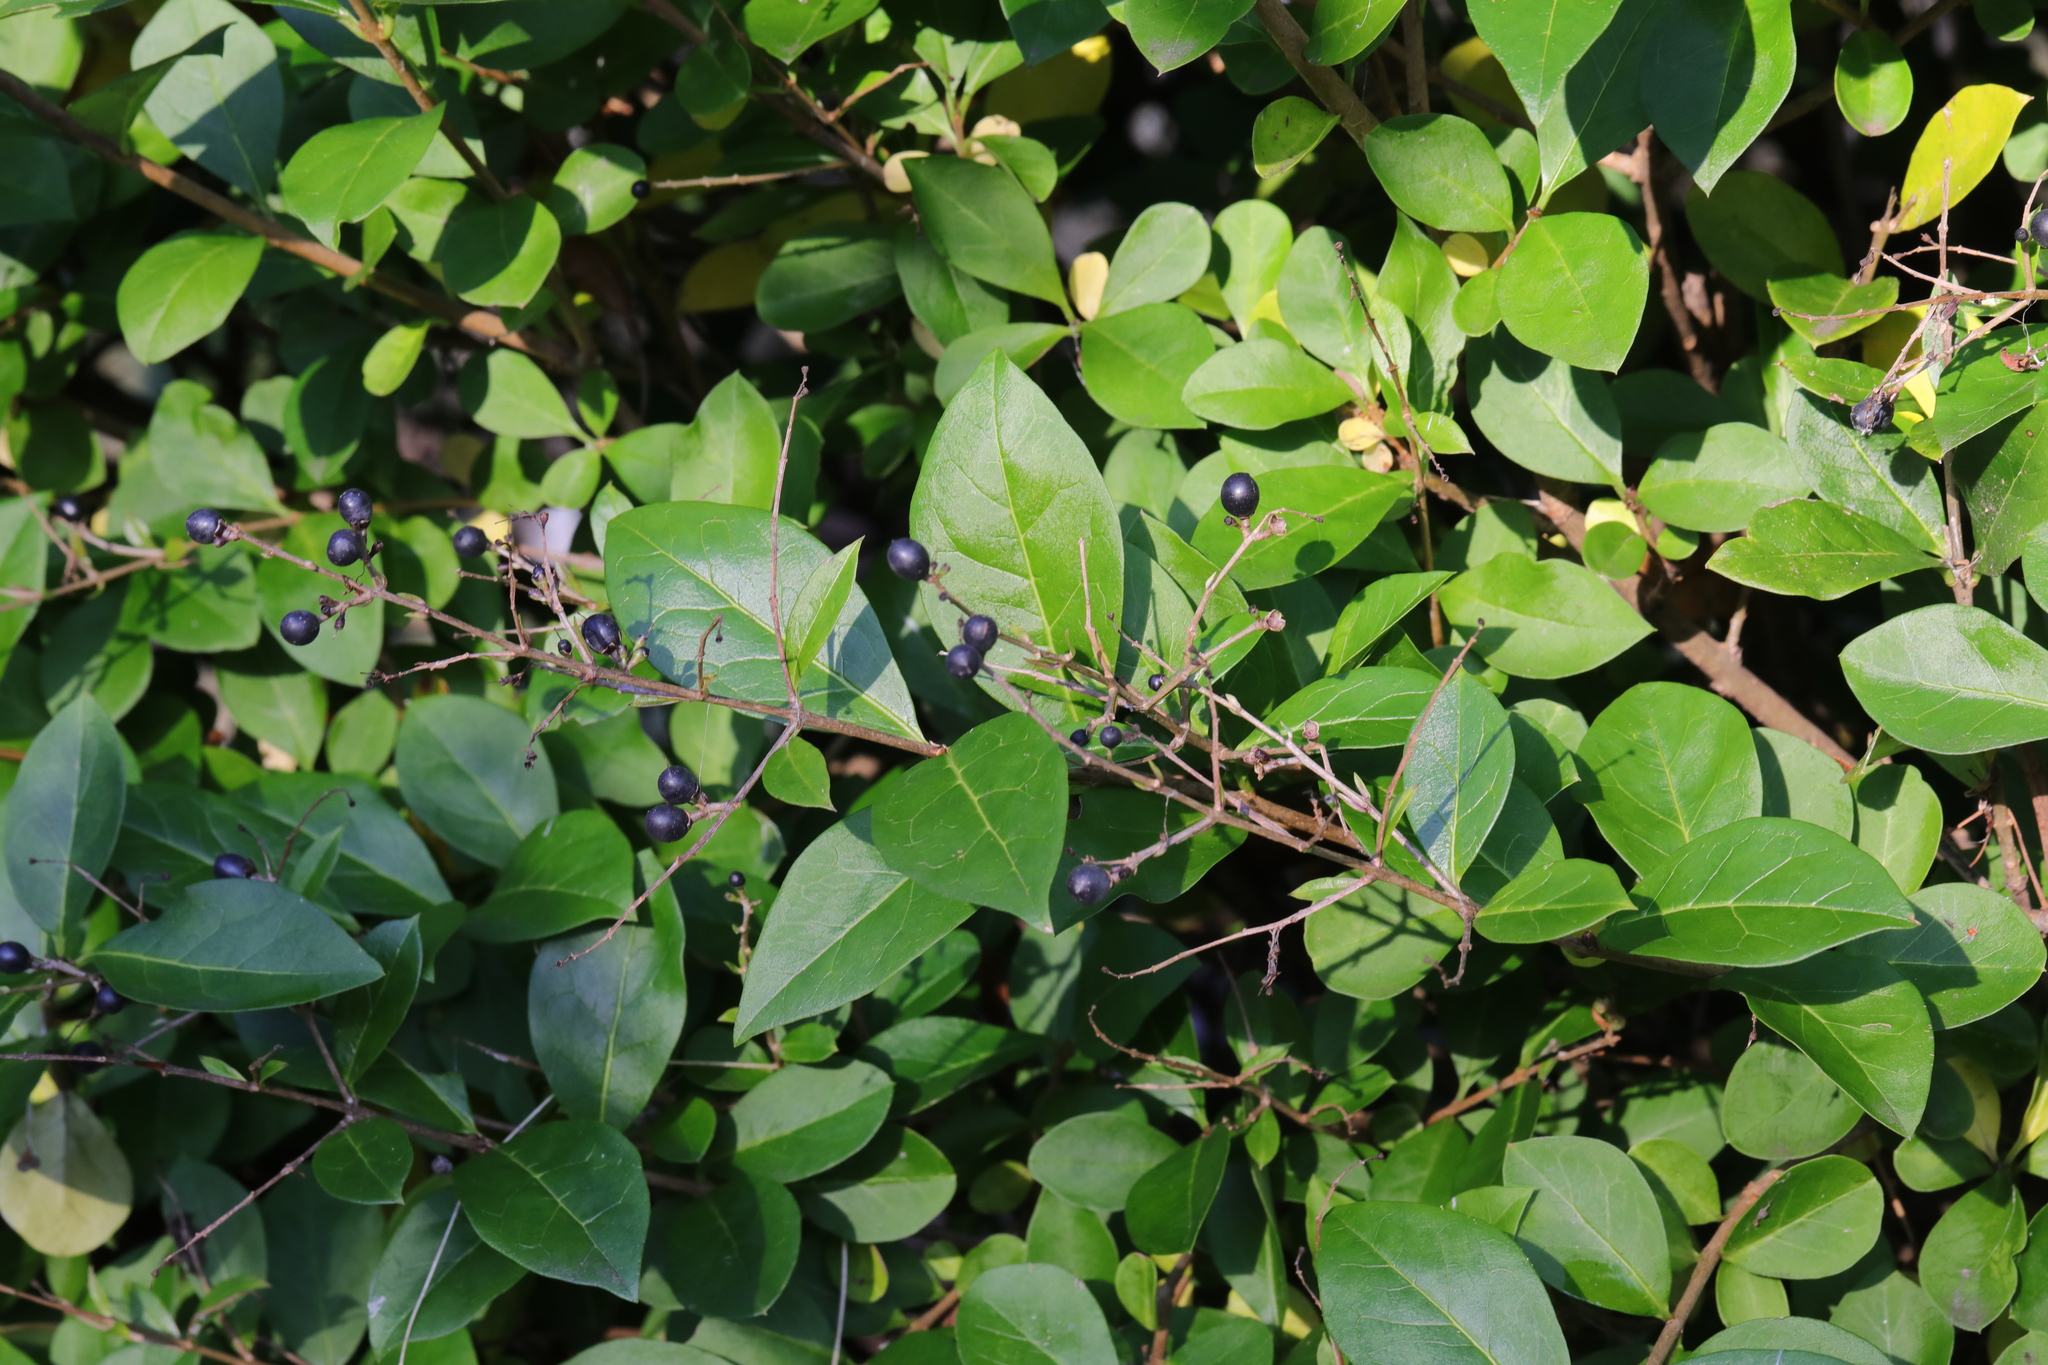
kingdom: Plantae
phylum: Tracheophyta
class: Magnoliopsida
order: Lamiales
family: Oleaceae
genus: Ligustrum
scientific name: Ligustrum ovalifolium
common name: California privet
